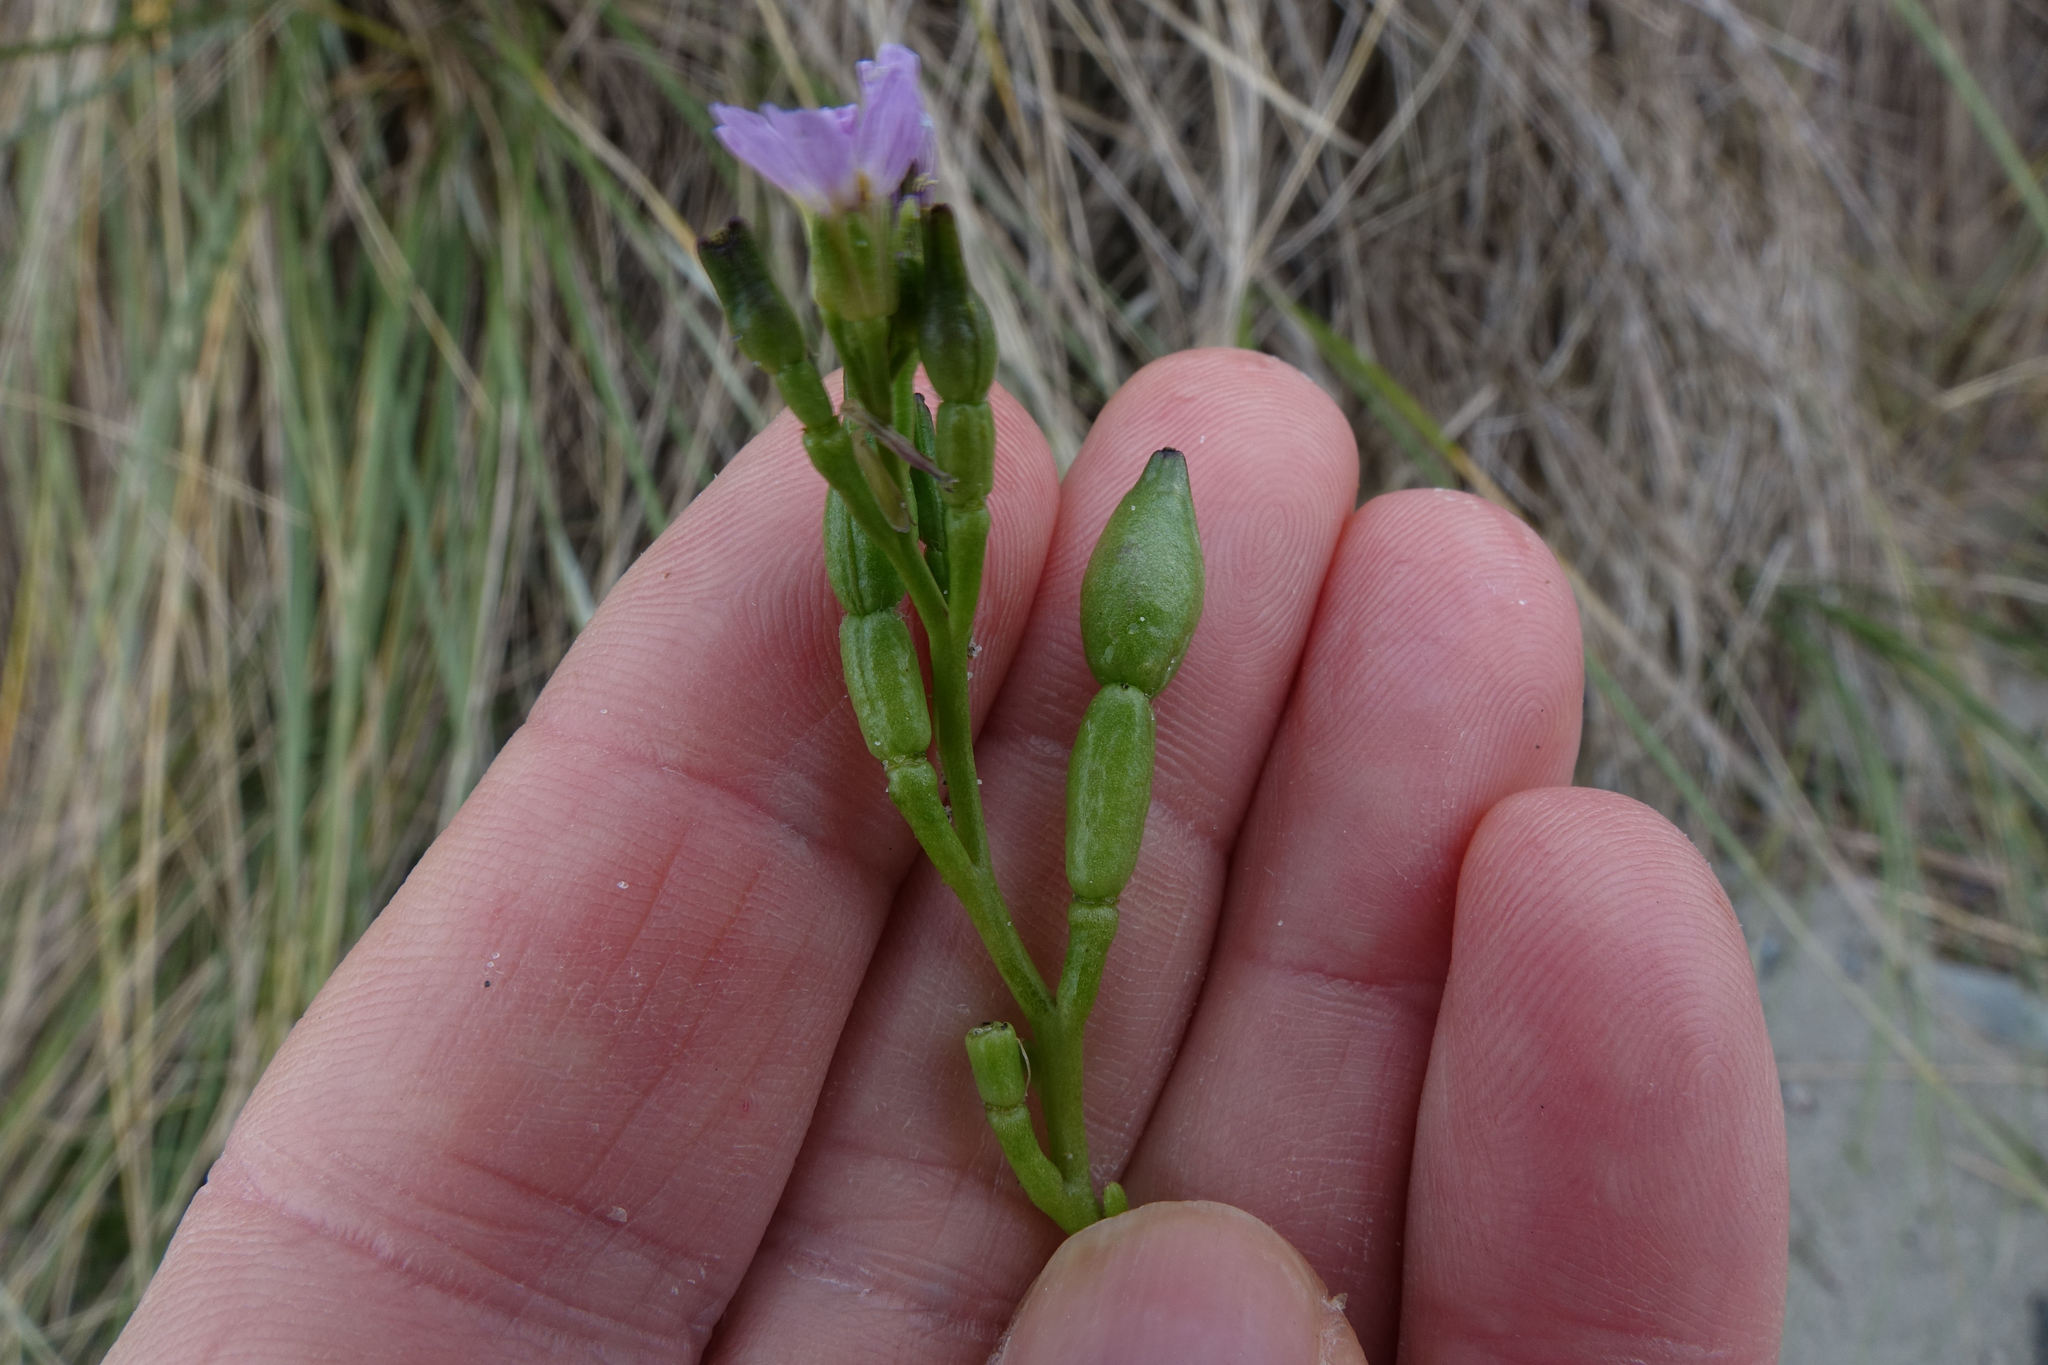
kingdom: Plantae
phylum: Tracheophyta
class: Magnoliopsida
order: Brassicales
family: Brassicaceae
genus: Cakile
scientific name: Cakile edentula
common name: American sea rocket
